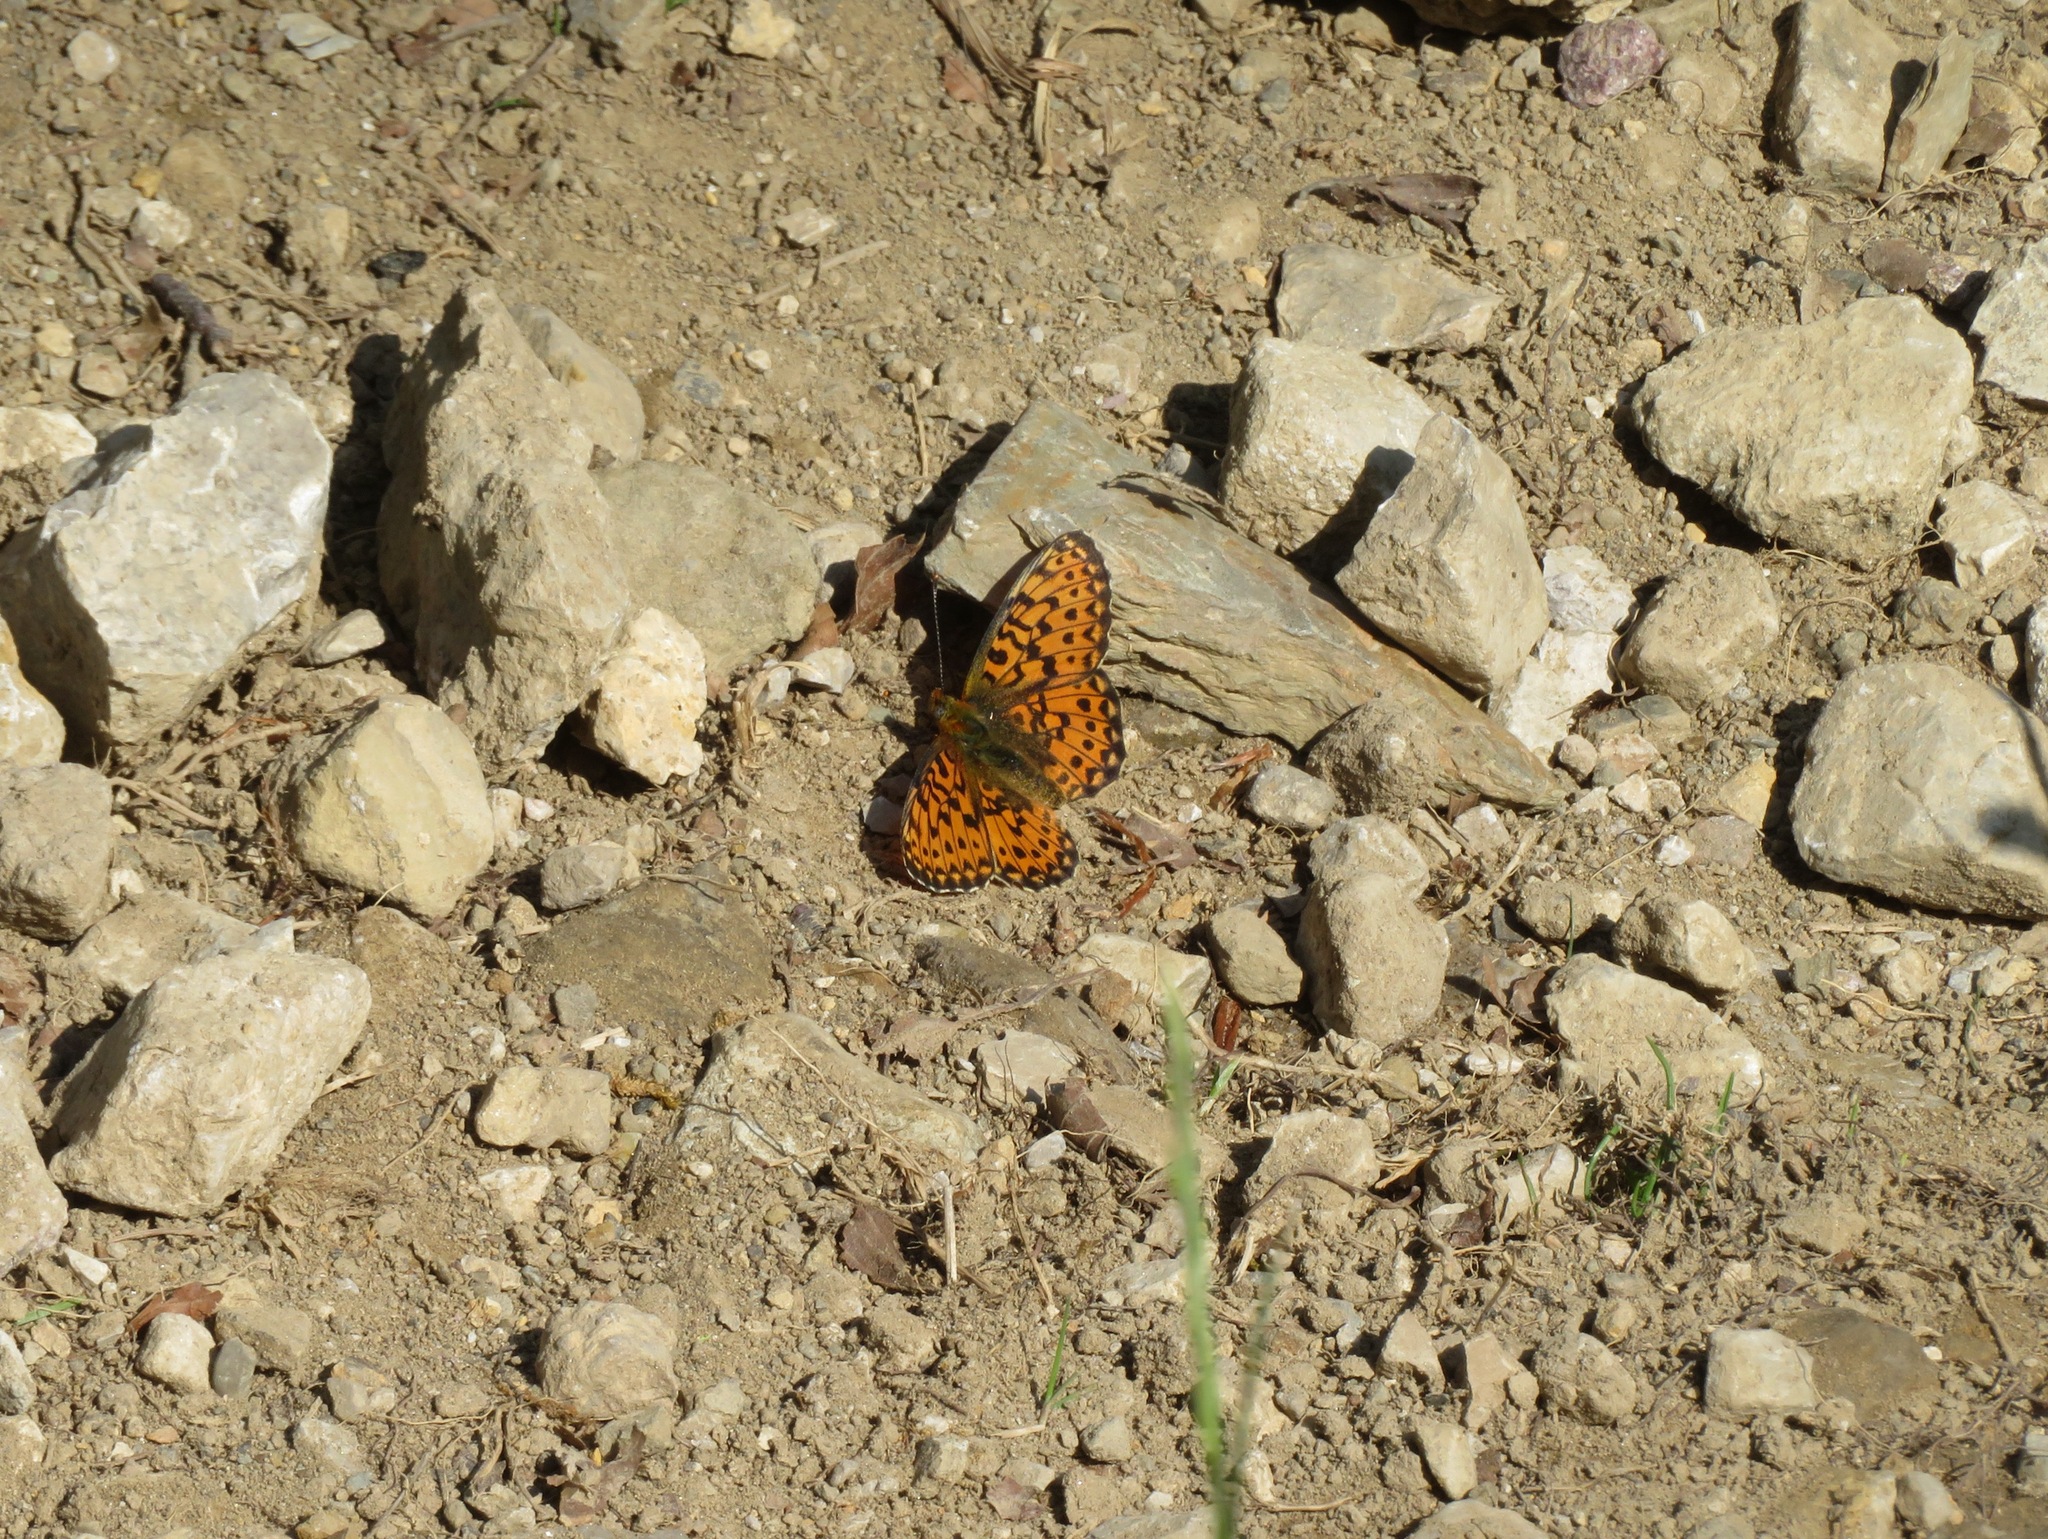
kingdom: Animalia
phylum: Arthropoda
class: Insecta
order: Lepidoptera
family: Nymphalidae
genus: Clossiana
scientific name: Clossiana euphrosyne
